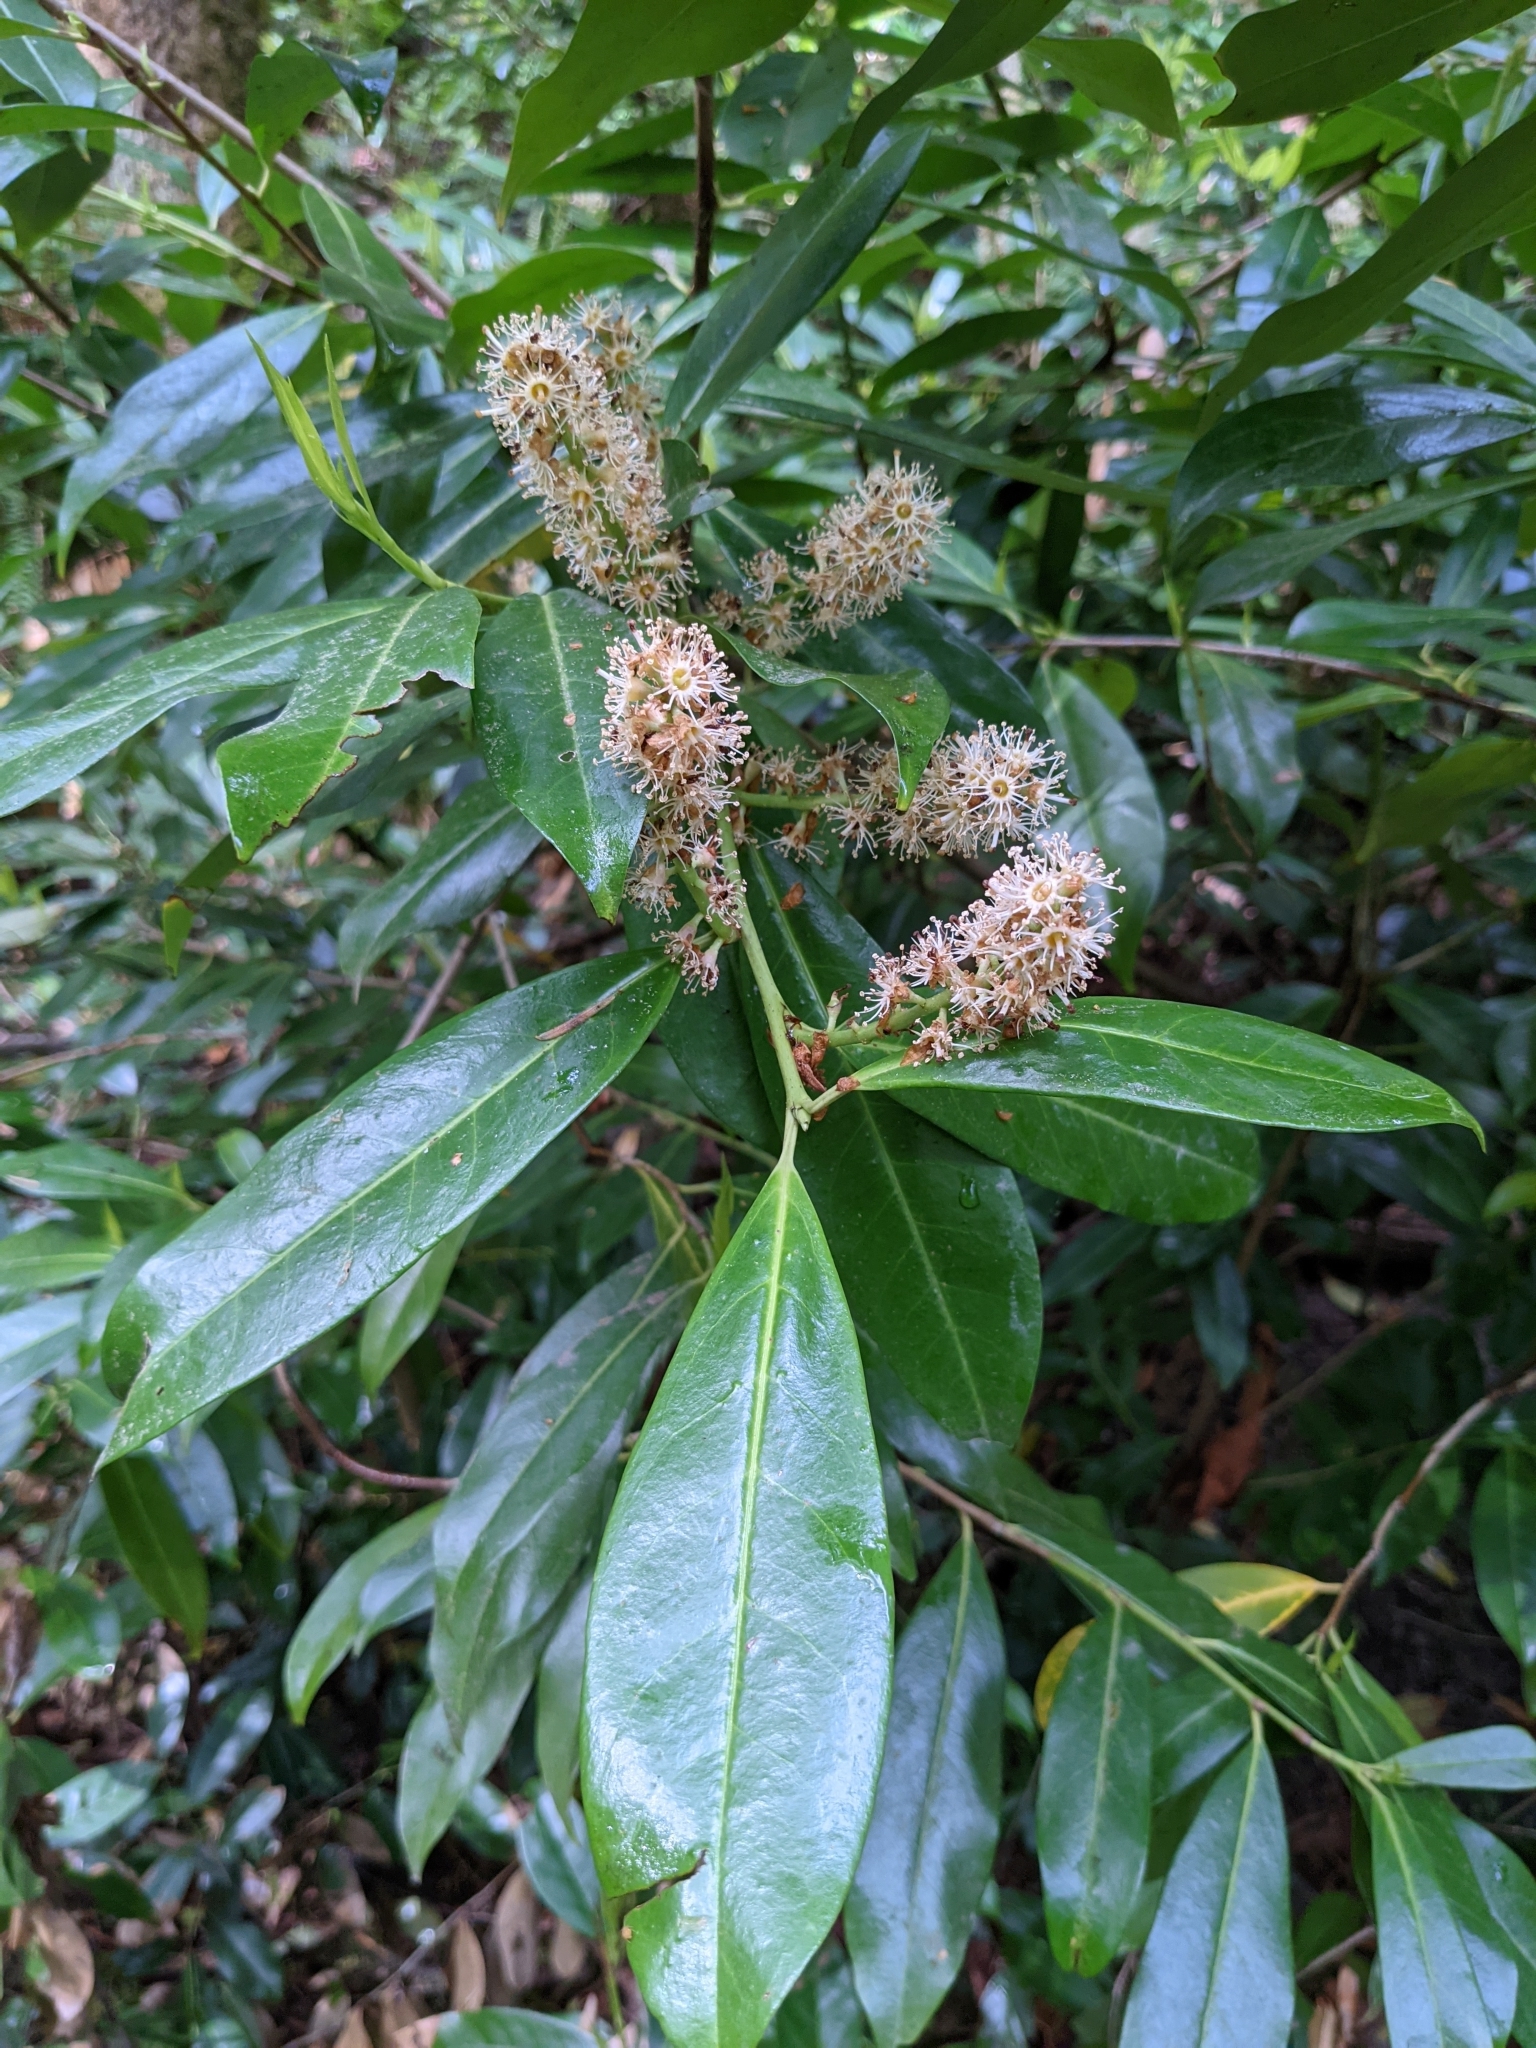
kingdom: Plantae
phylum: Tracheophyta
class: Magnoliopsida
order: Rosales
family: Rosaceae
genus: Prunus
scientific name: Prunus laurocerasus
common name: Cherry laurel
